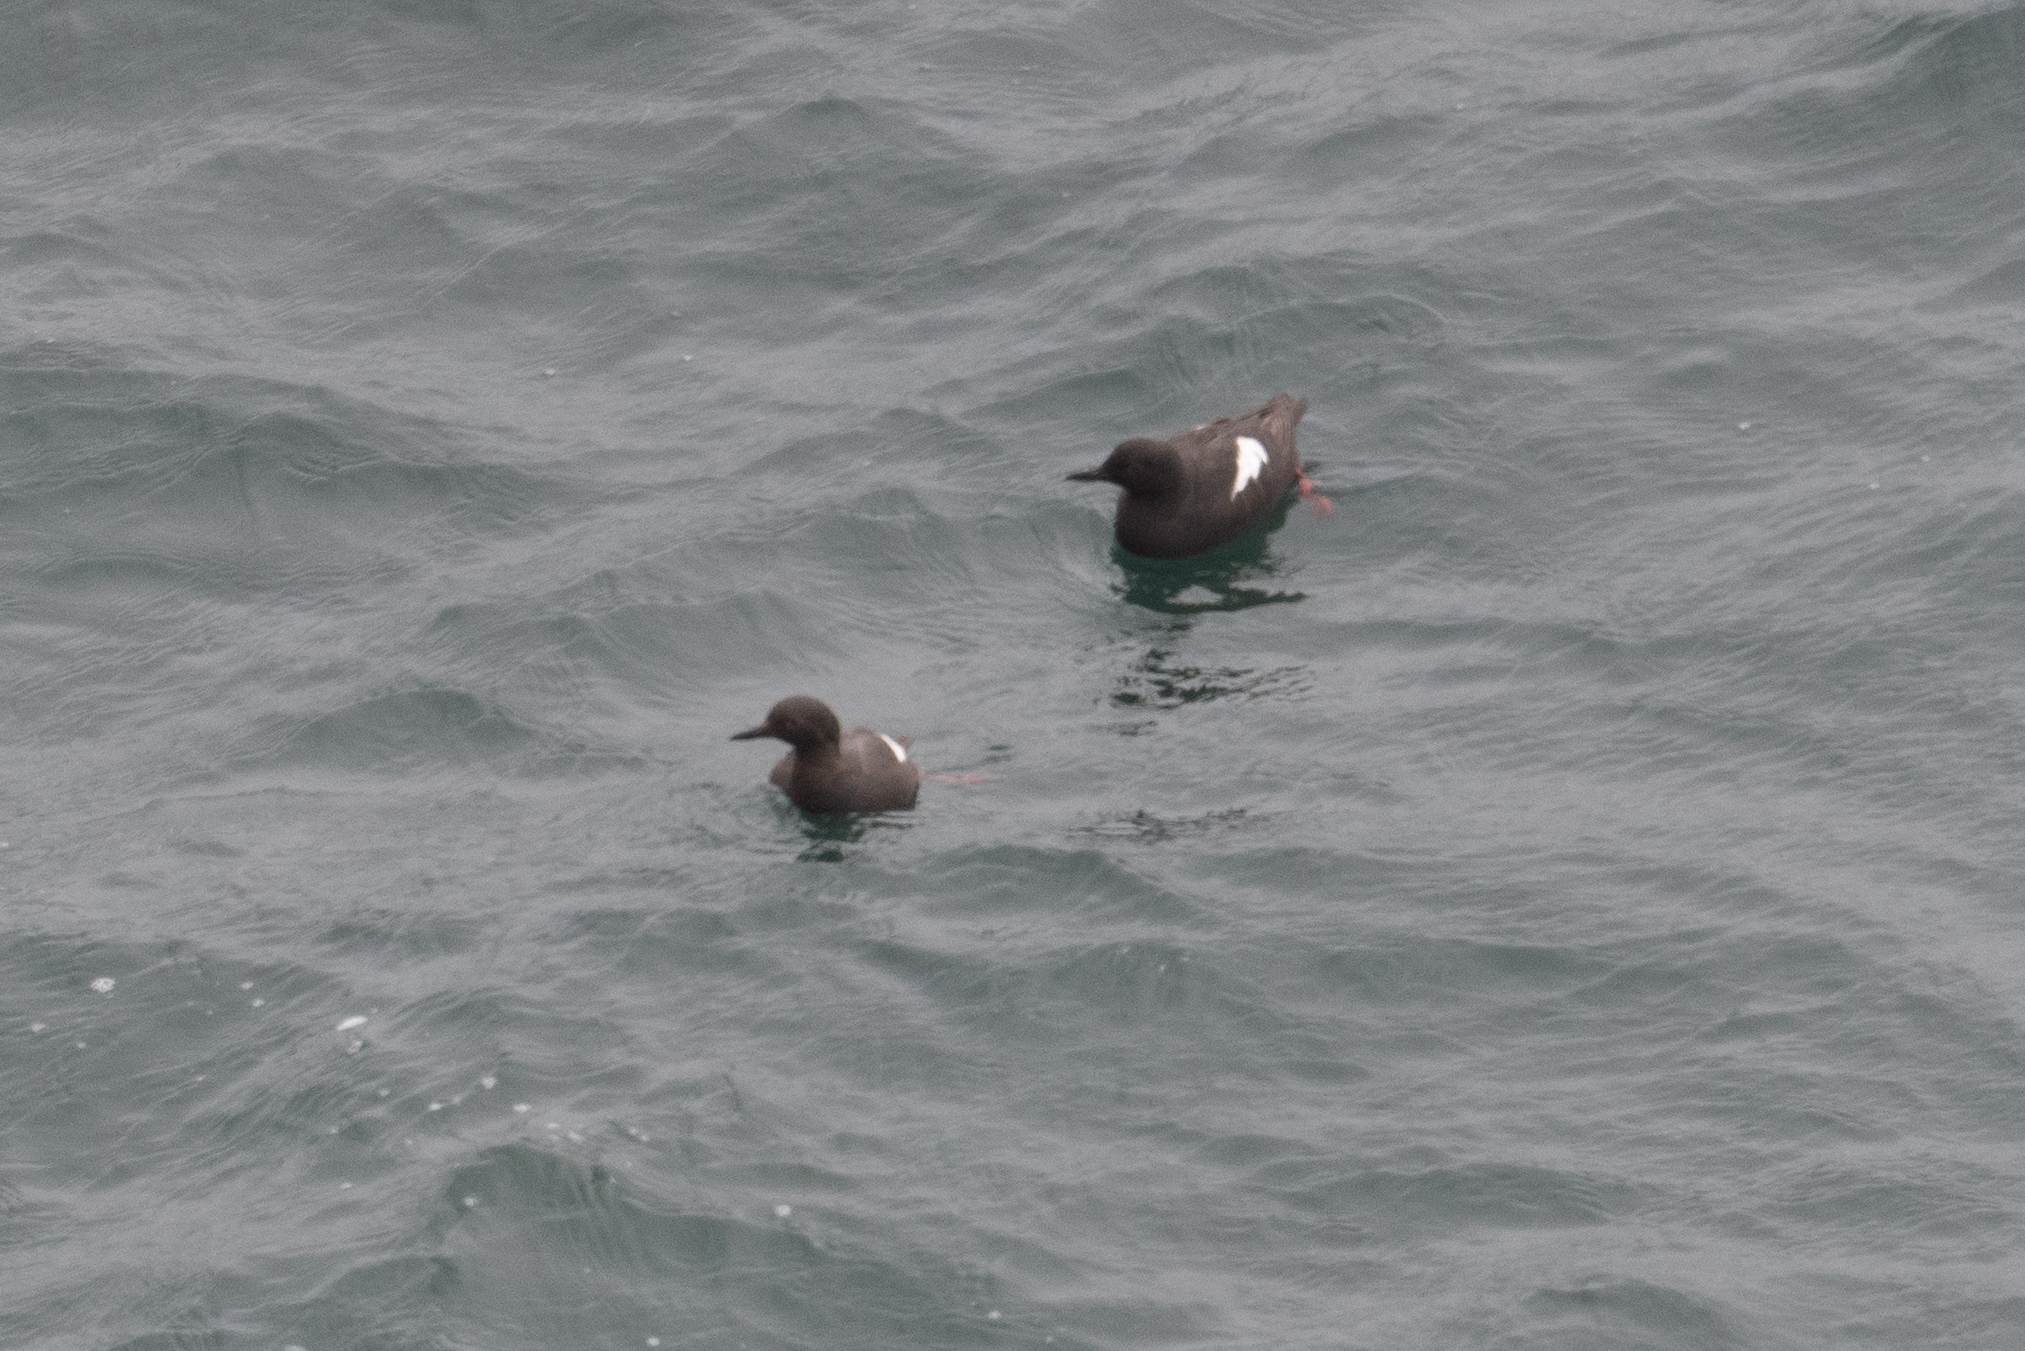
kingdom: Animalia
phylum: Chordata
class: Aves
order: Charadriiformes
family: Alcidae
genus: Cepphus
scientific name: Cepphus columba
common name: Pigeon guillemot
